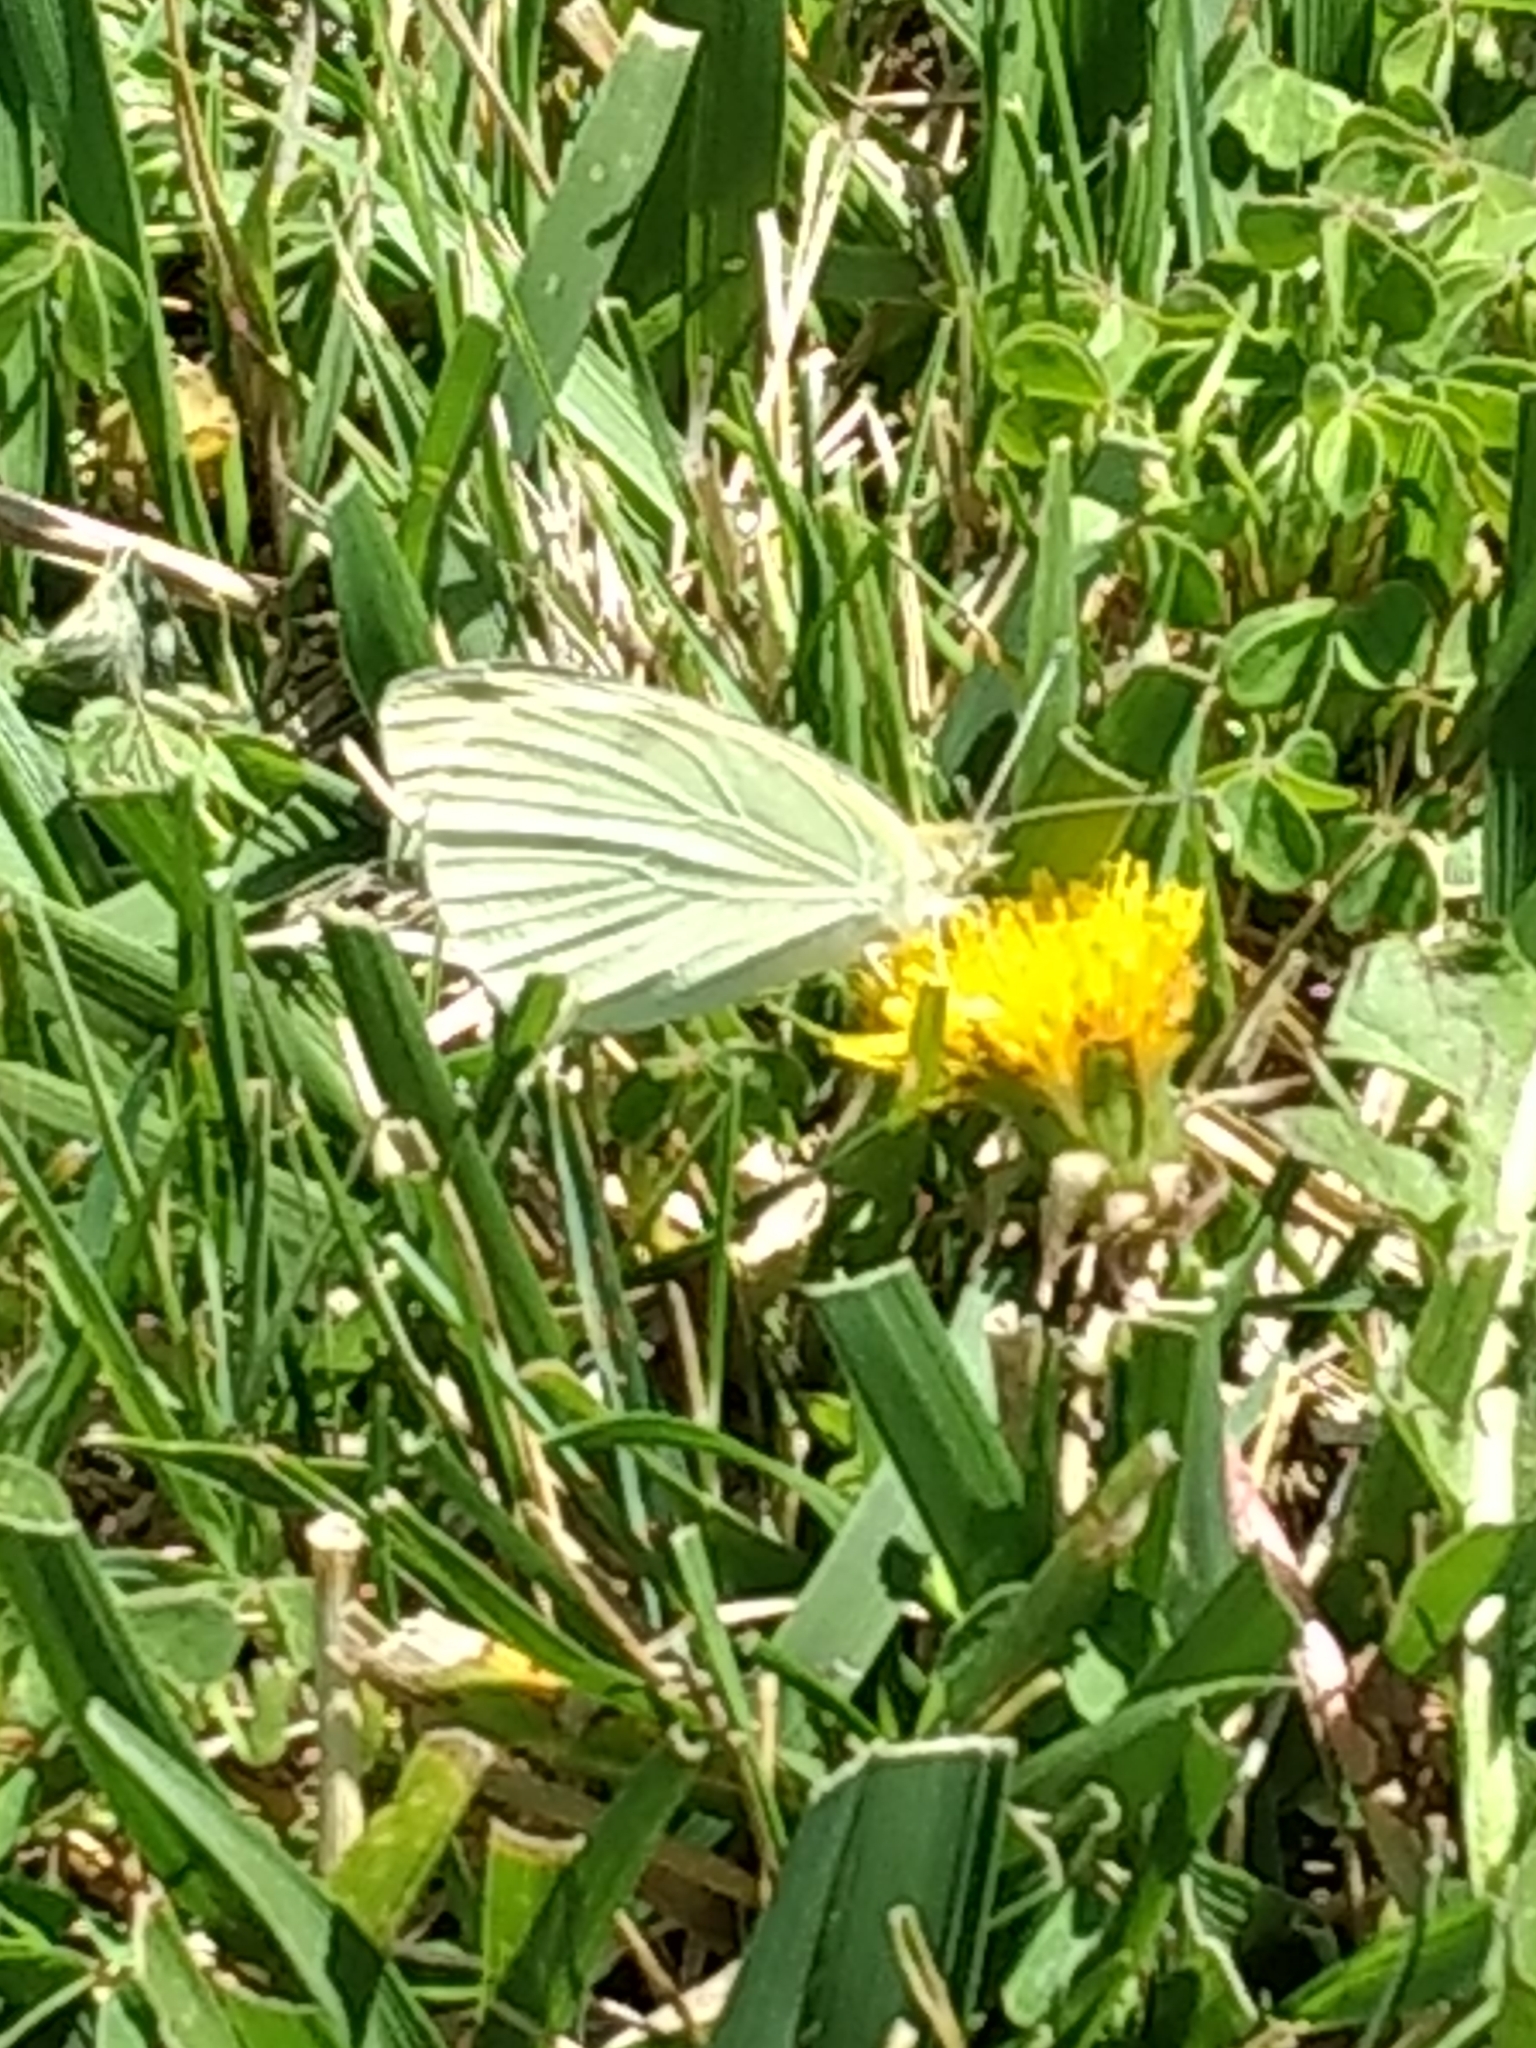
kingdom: Animalia
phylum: Arthropoda
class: Insecta
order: Lepidoptera
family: Pieridae
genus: Pieris
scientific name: Pieris rapae
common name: Small white
